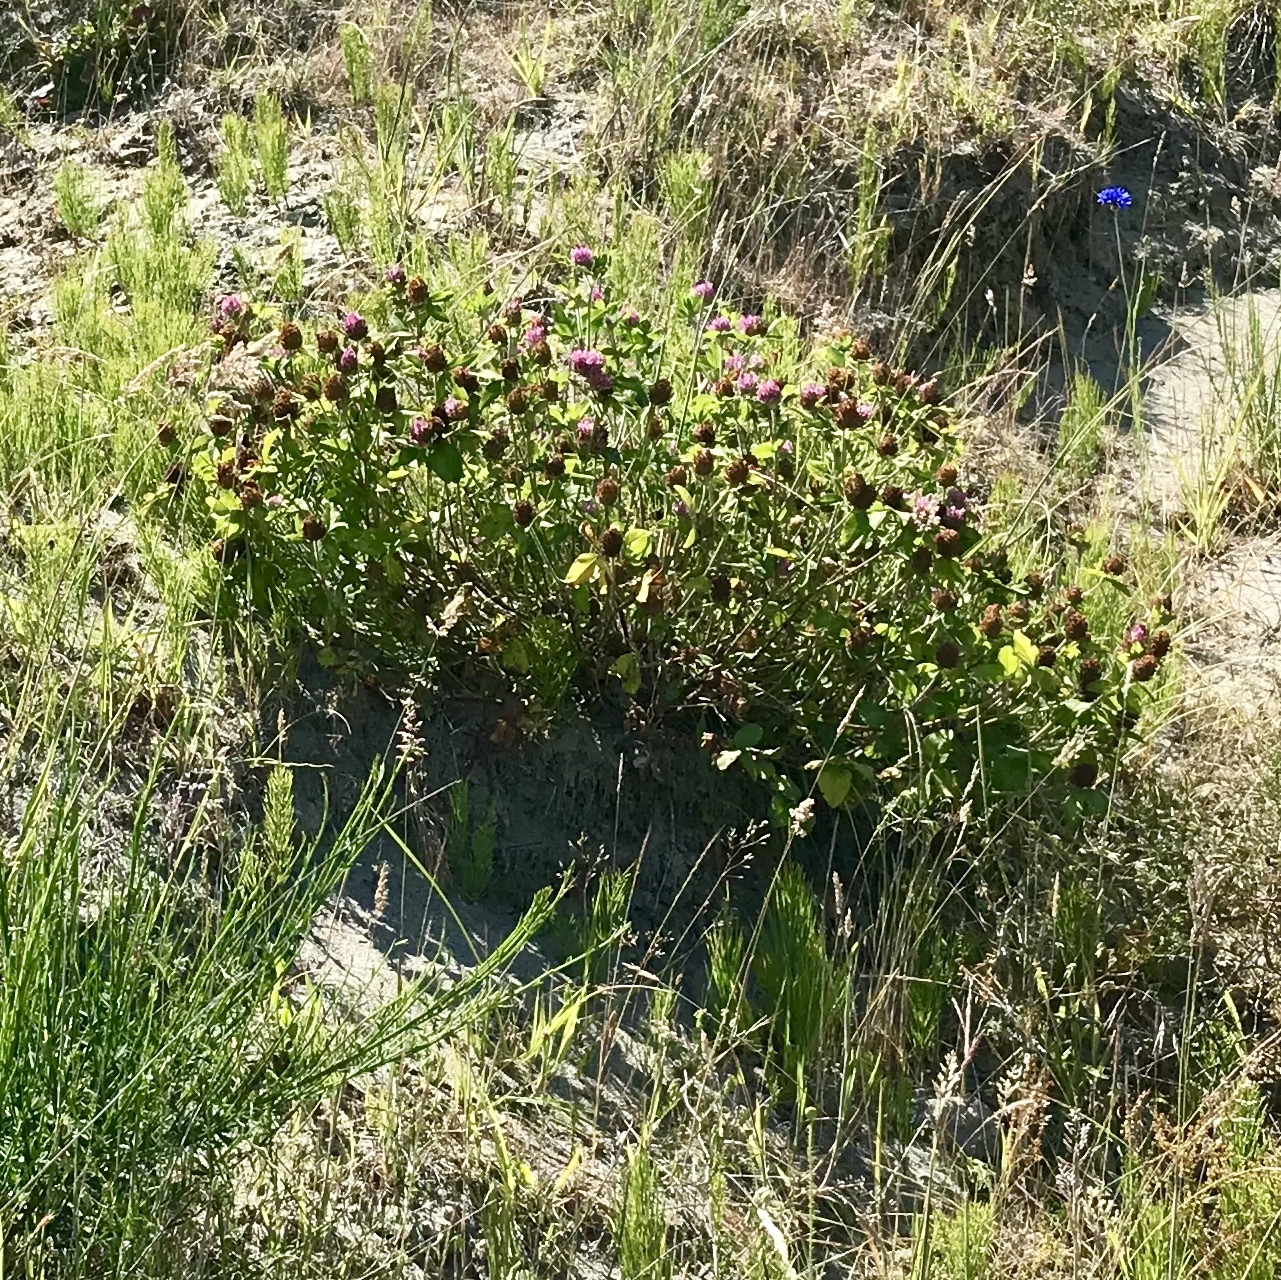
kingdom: Plantae
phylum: Tracheophyta
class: Magnoliopsida
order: Fabales
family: Fabaceae
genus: Trifolium
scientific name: Trifolium pratense
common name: Red clover
